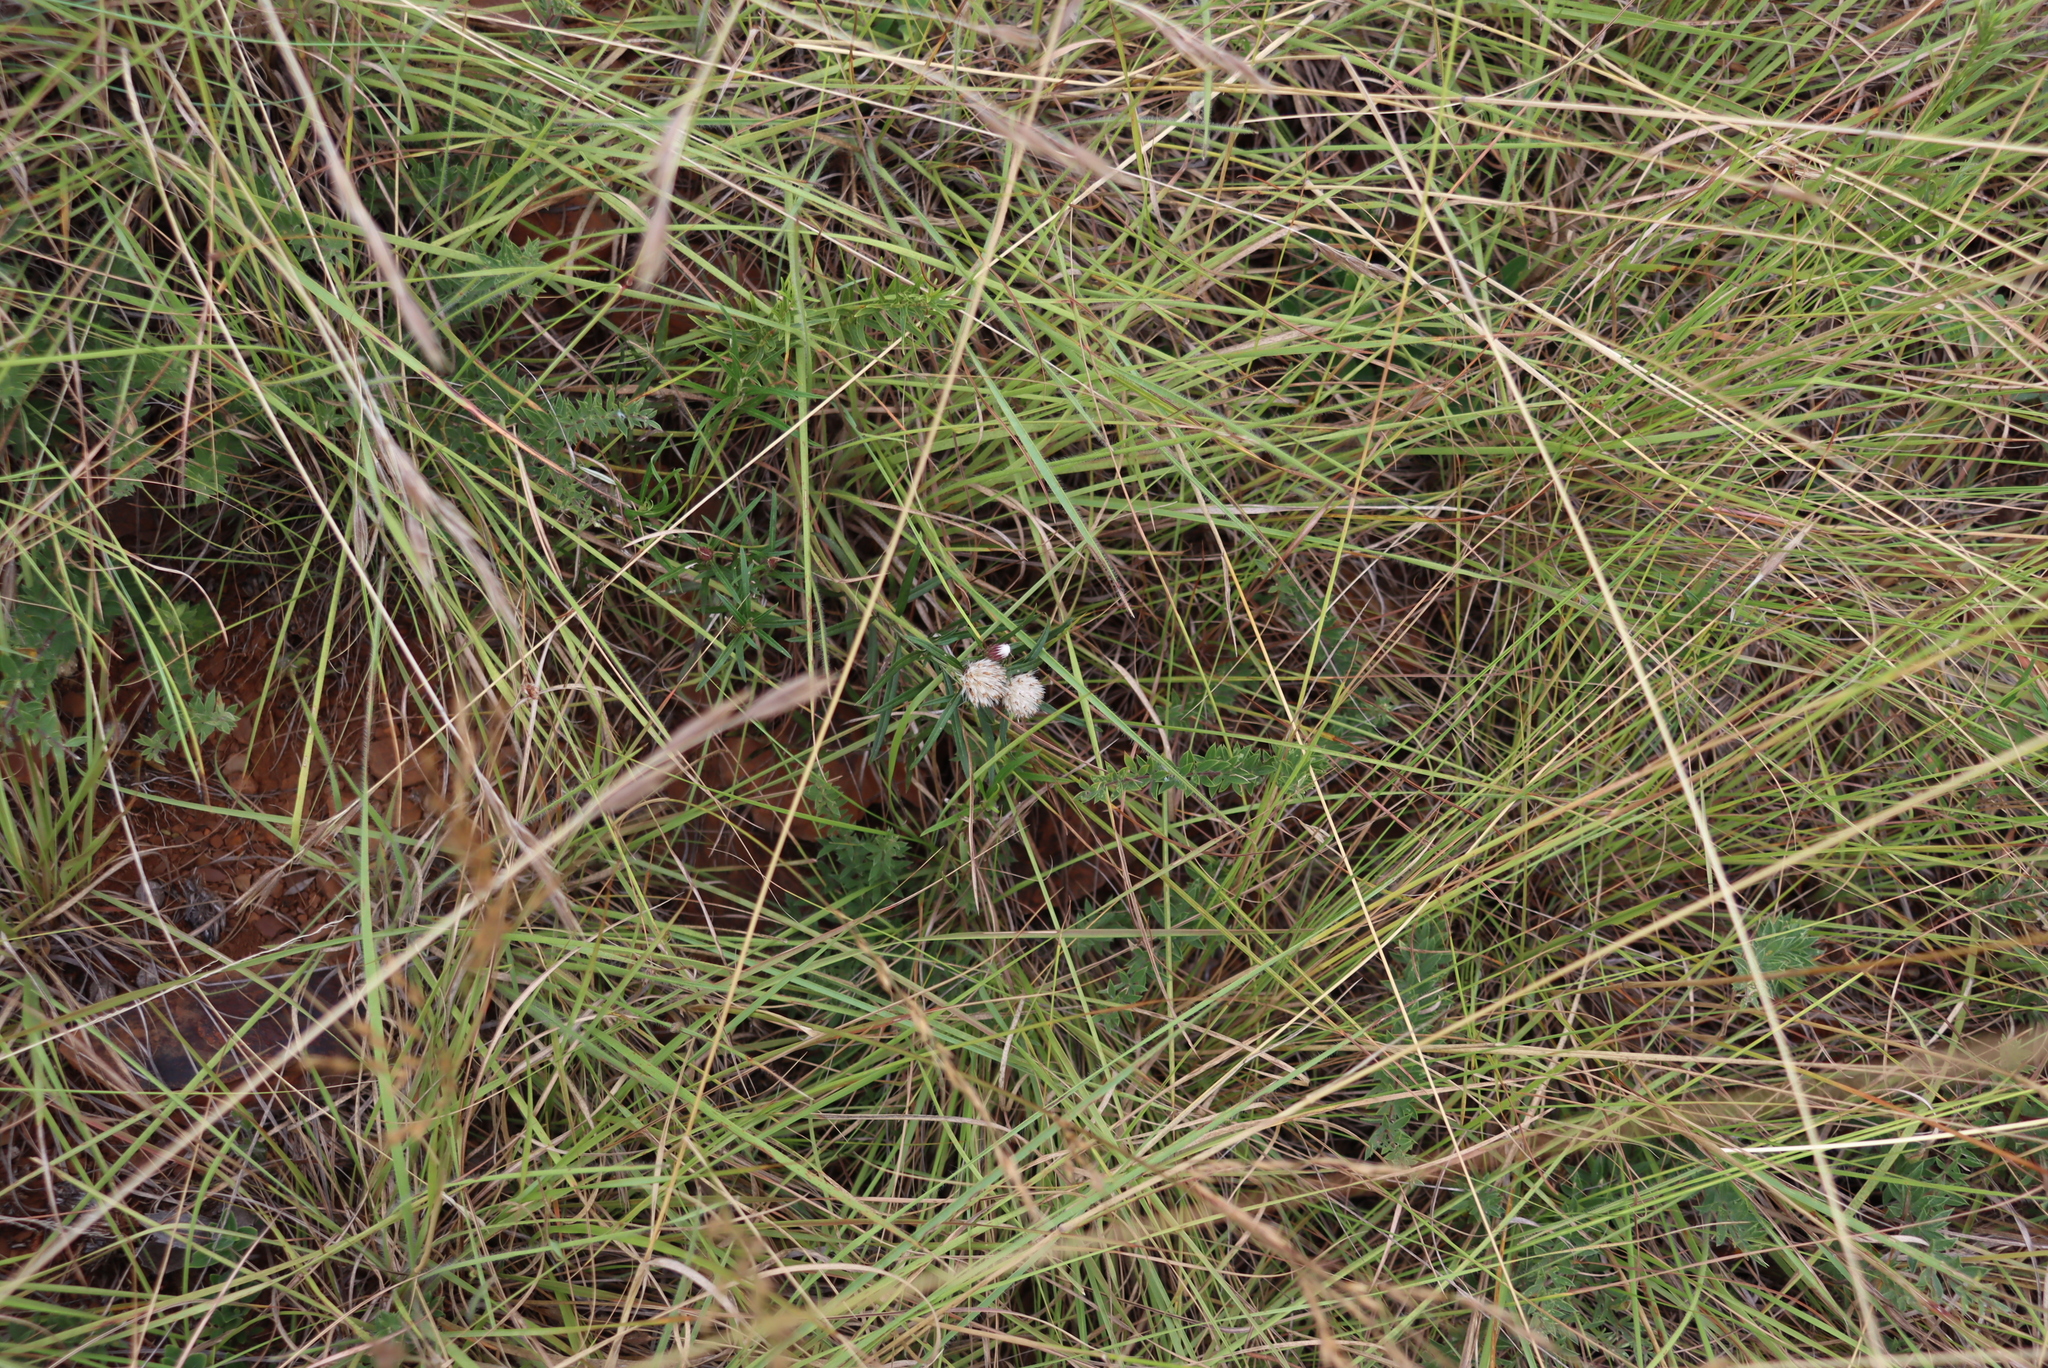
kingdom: Plantae
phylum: Tracheophyta
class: Magnoliopsida
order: Asterales
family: Asteraceae
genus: Dicoma
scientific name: Dicoma anomala
